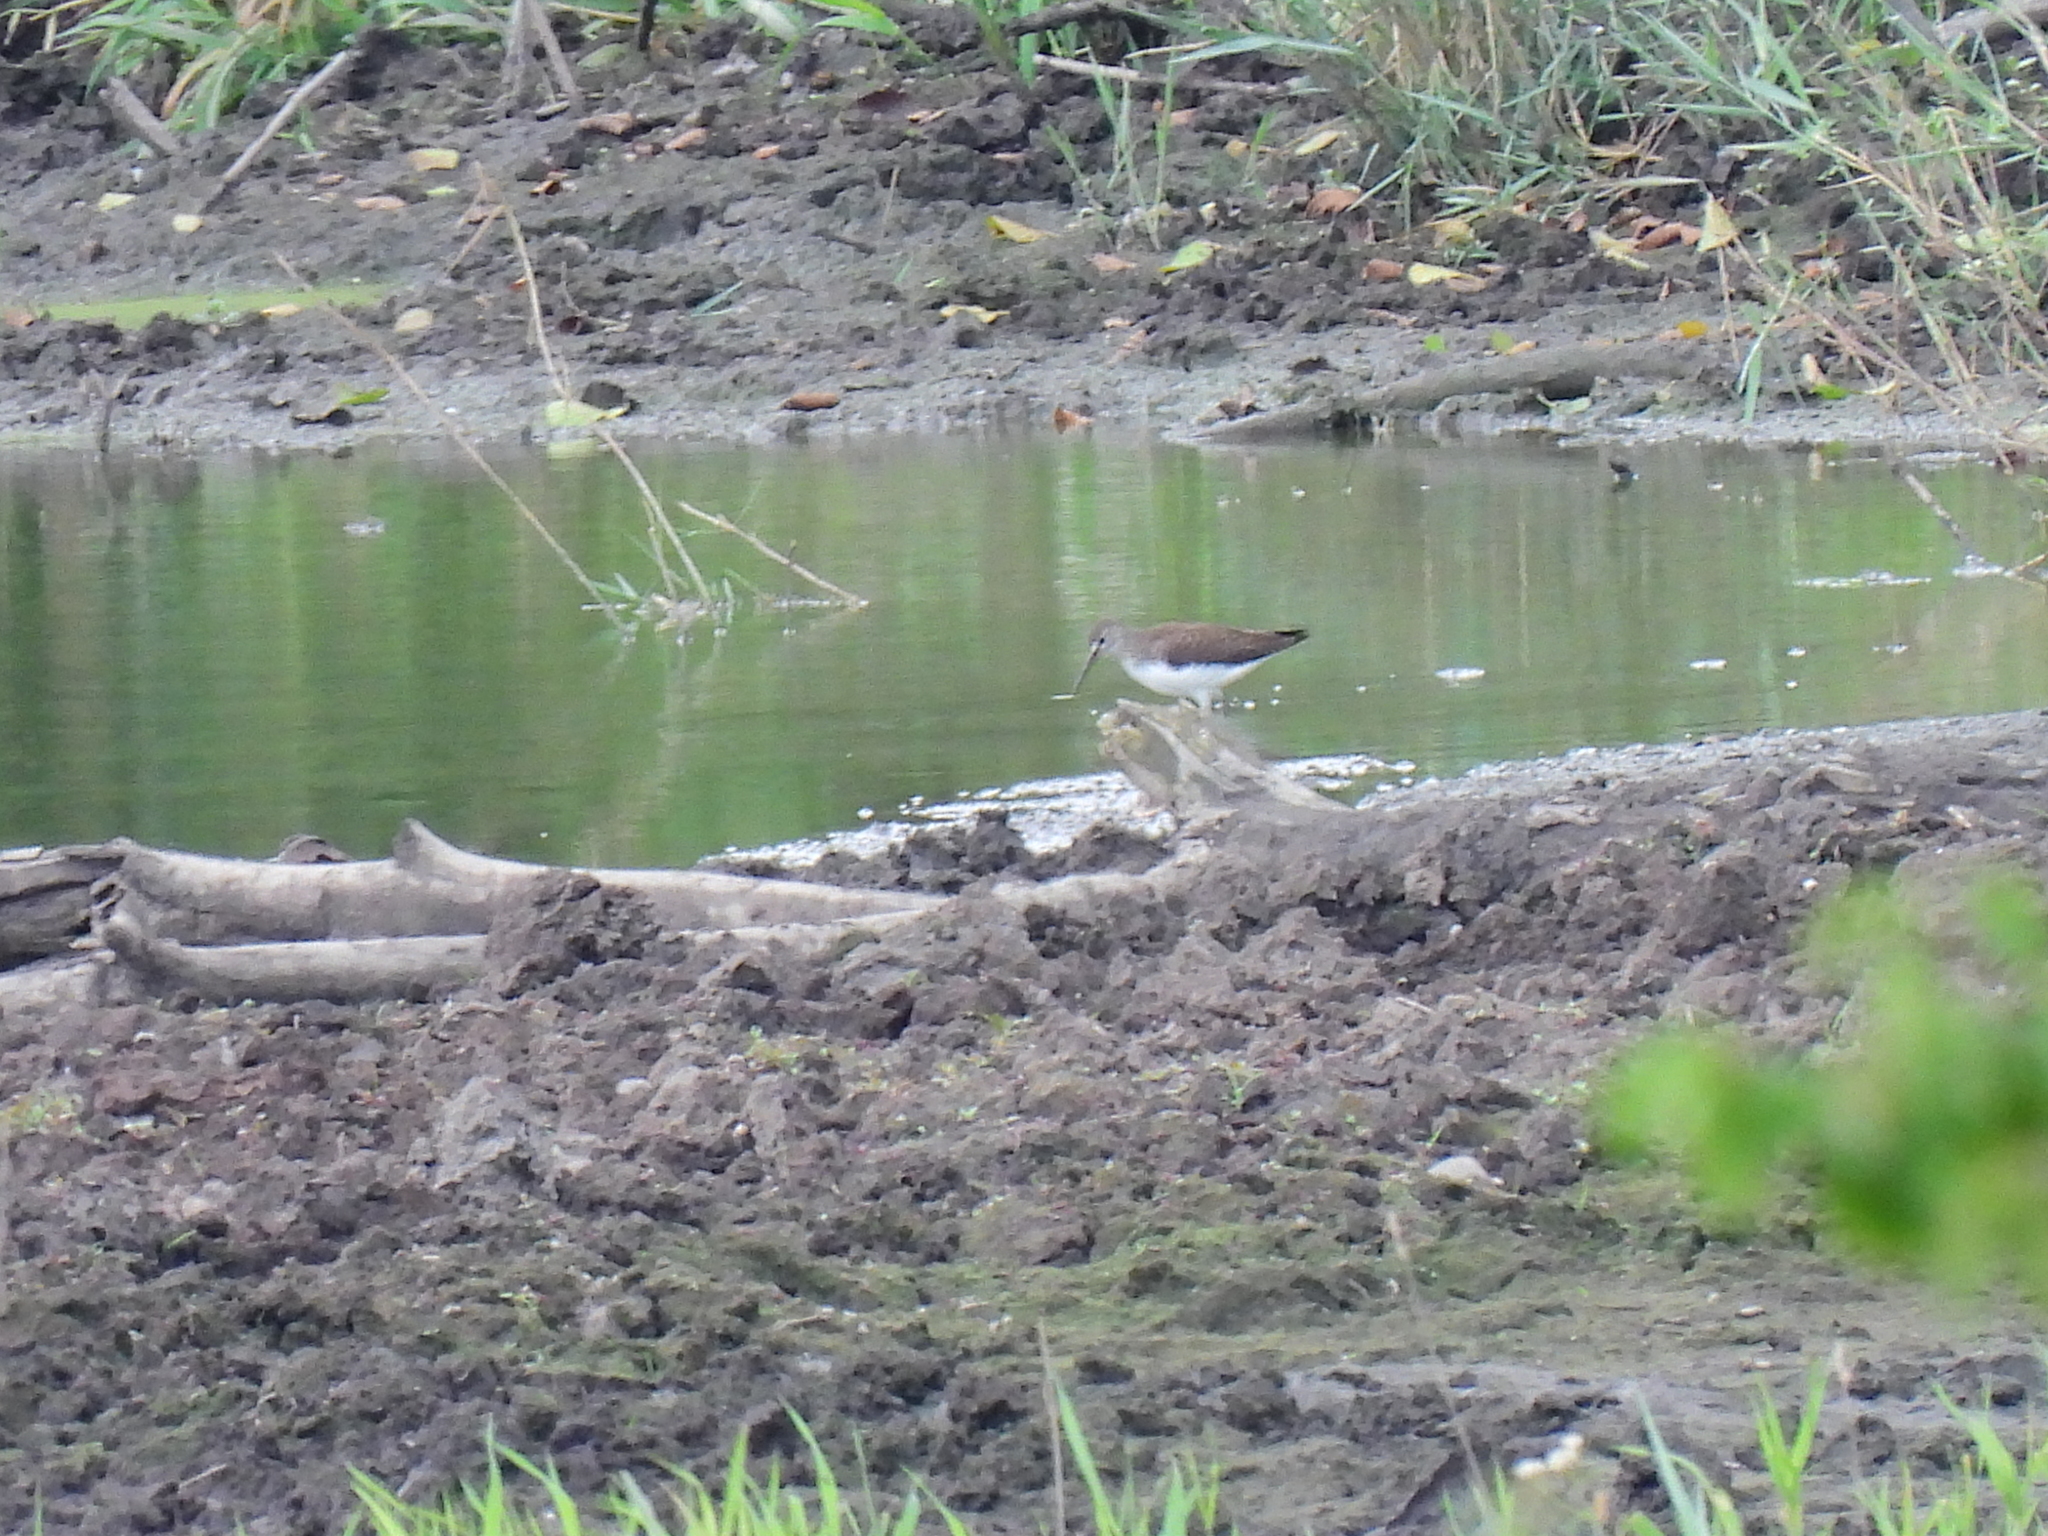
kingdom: Animalia
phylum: Chordata
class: Aves
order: Charadriiformes
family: Scolopacidae
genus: Tringa
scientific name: Tringa ochropus
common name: Green sandpiper
